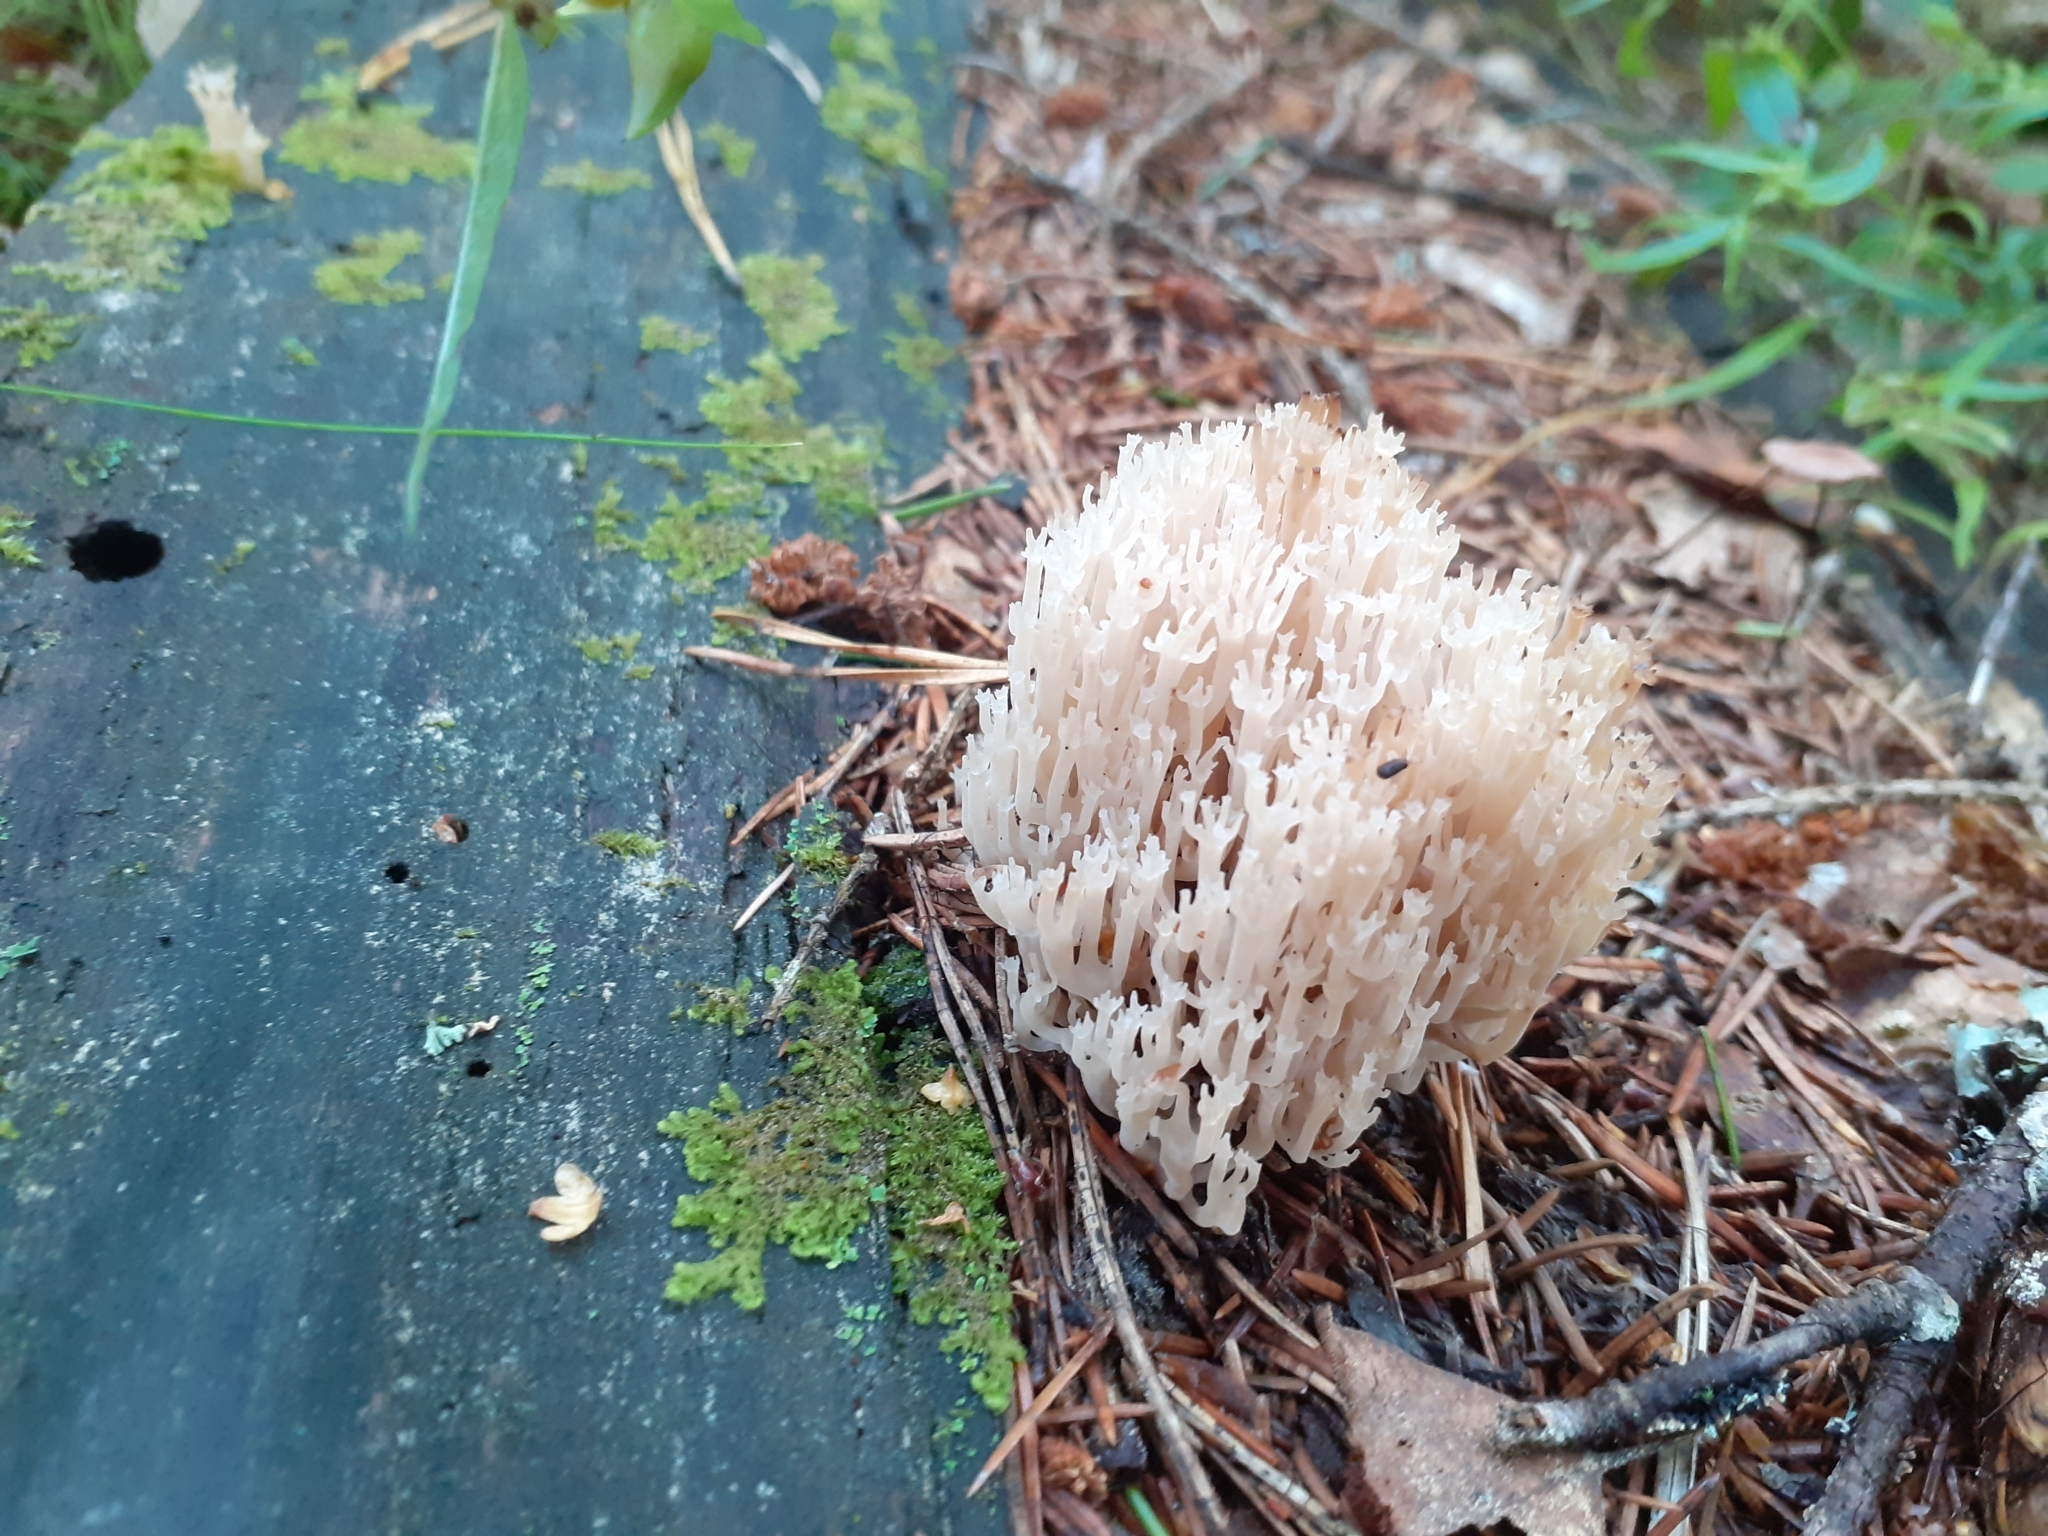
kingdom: Fungi
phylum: Basidiomycota
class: Agaricomycetes
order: Russulales
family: Auriscalpiaceae
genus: Artomyces
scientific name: Artomyces pyxidatus
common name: Crown-tipped coral fungus
